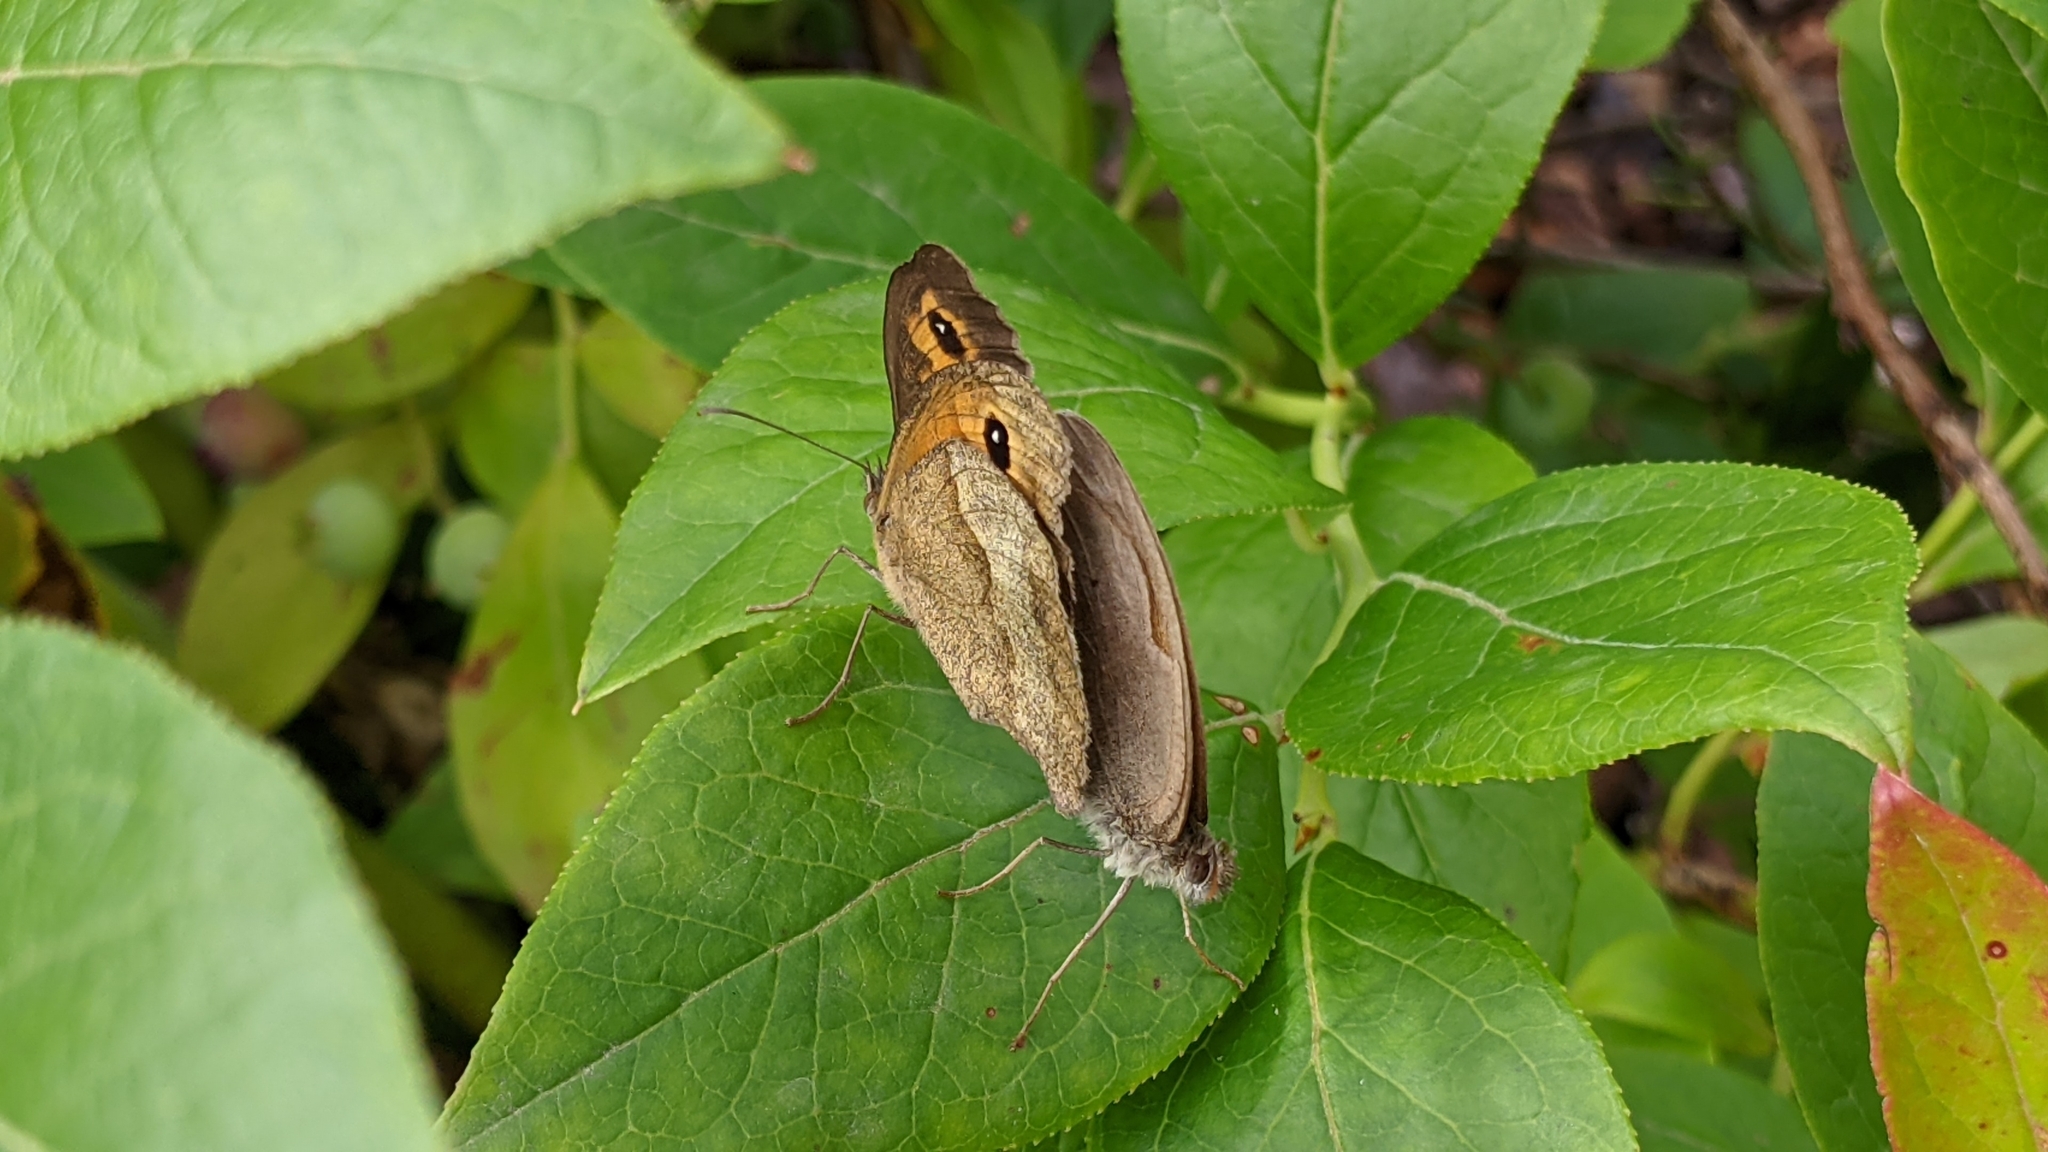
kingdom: Animalia
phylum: Arthropoda
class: Insecta
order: Lepidoptera
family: Nymphalidae
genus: Maniola
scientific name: Maniola jurtina
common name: Meadow brown
